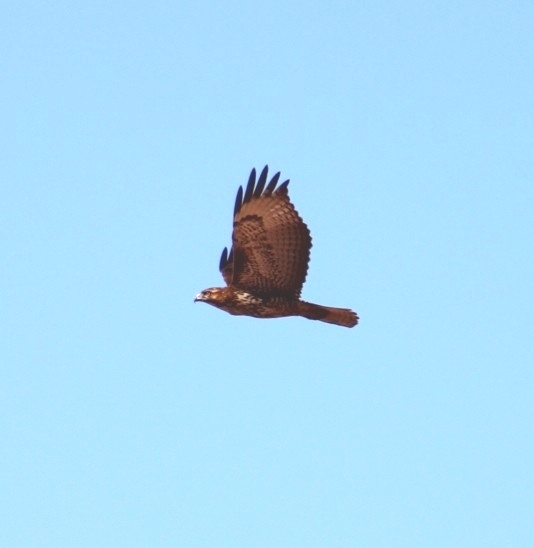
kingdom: Animalia
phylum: Chordata
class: Aves
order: Accipitriformes
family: Accipitridae
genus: Buteo
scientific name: Buteo jamaicensis
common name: Red-tailed hawk
